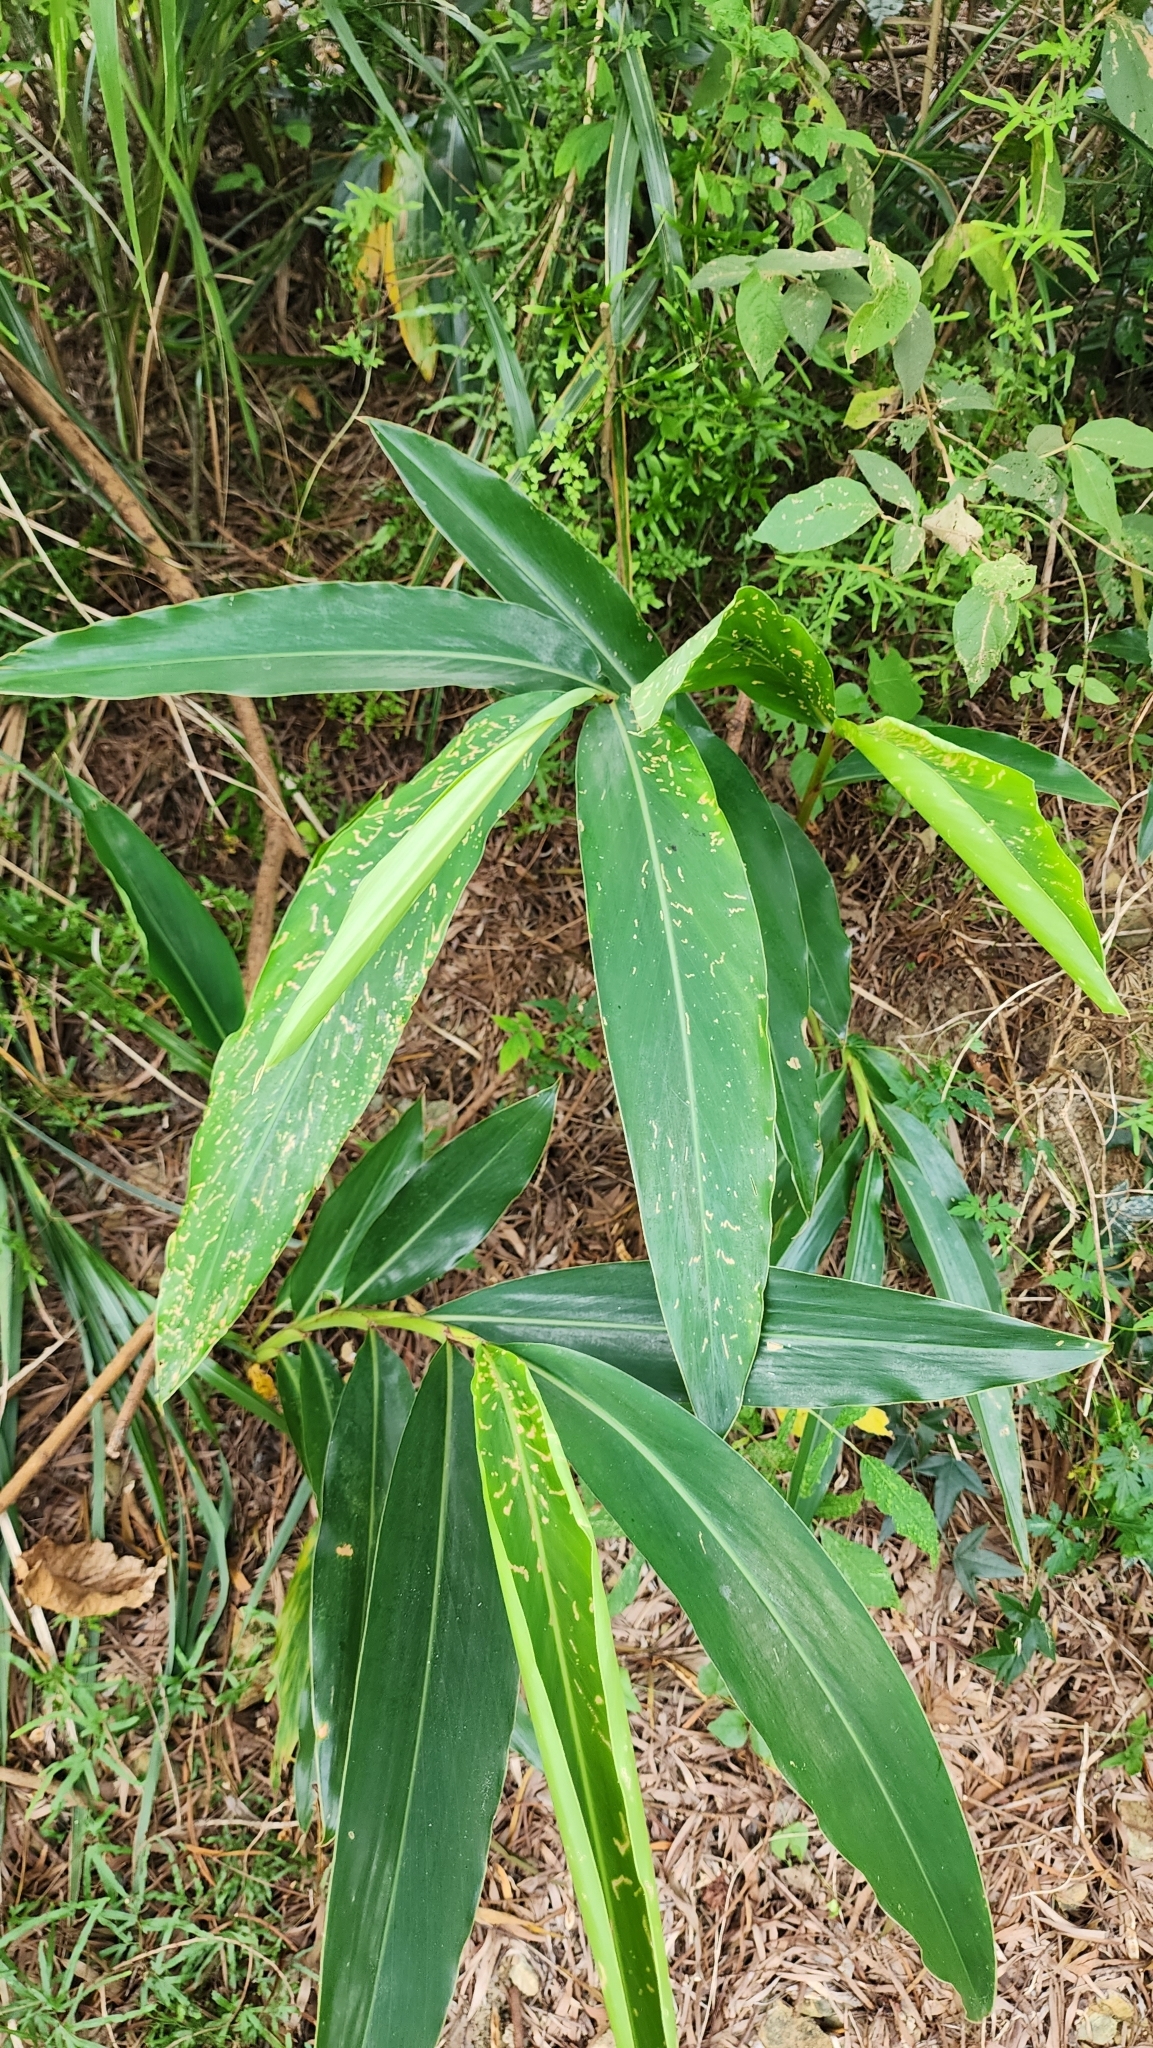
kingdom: Plantae
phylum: Tracheophyta
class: Liliopsida
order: Zingiberales
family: Zingiberaceae
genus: Alpinia
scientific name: Alpinia zerumbet
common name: Shellplant
